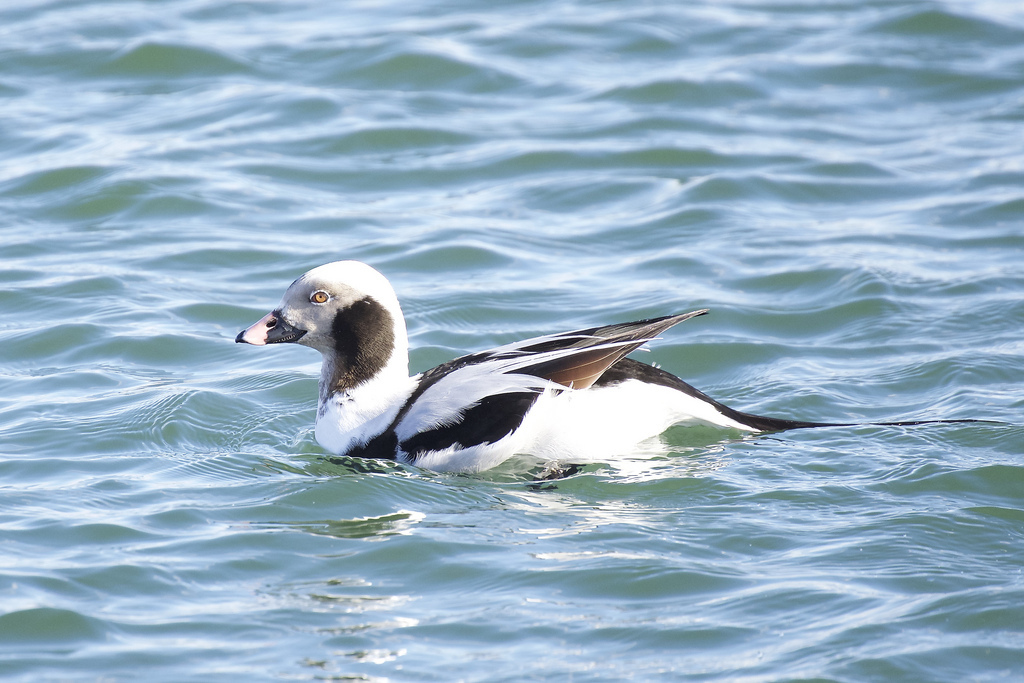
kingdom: Animalia
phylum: Chordata
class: Aves
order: Anseriformes
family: Anatidae
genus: Clangula
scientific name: Clangula hyemalis
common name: Long-tailed duck
